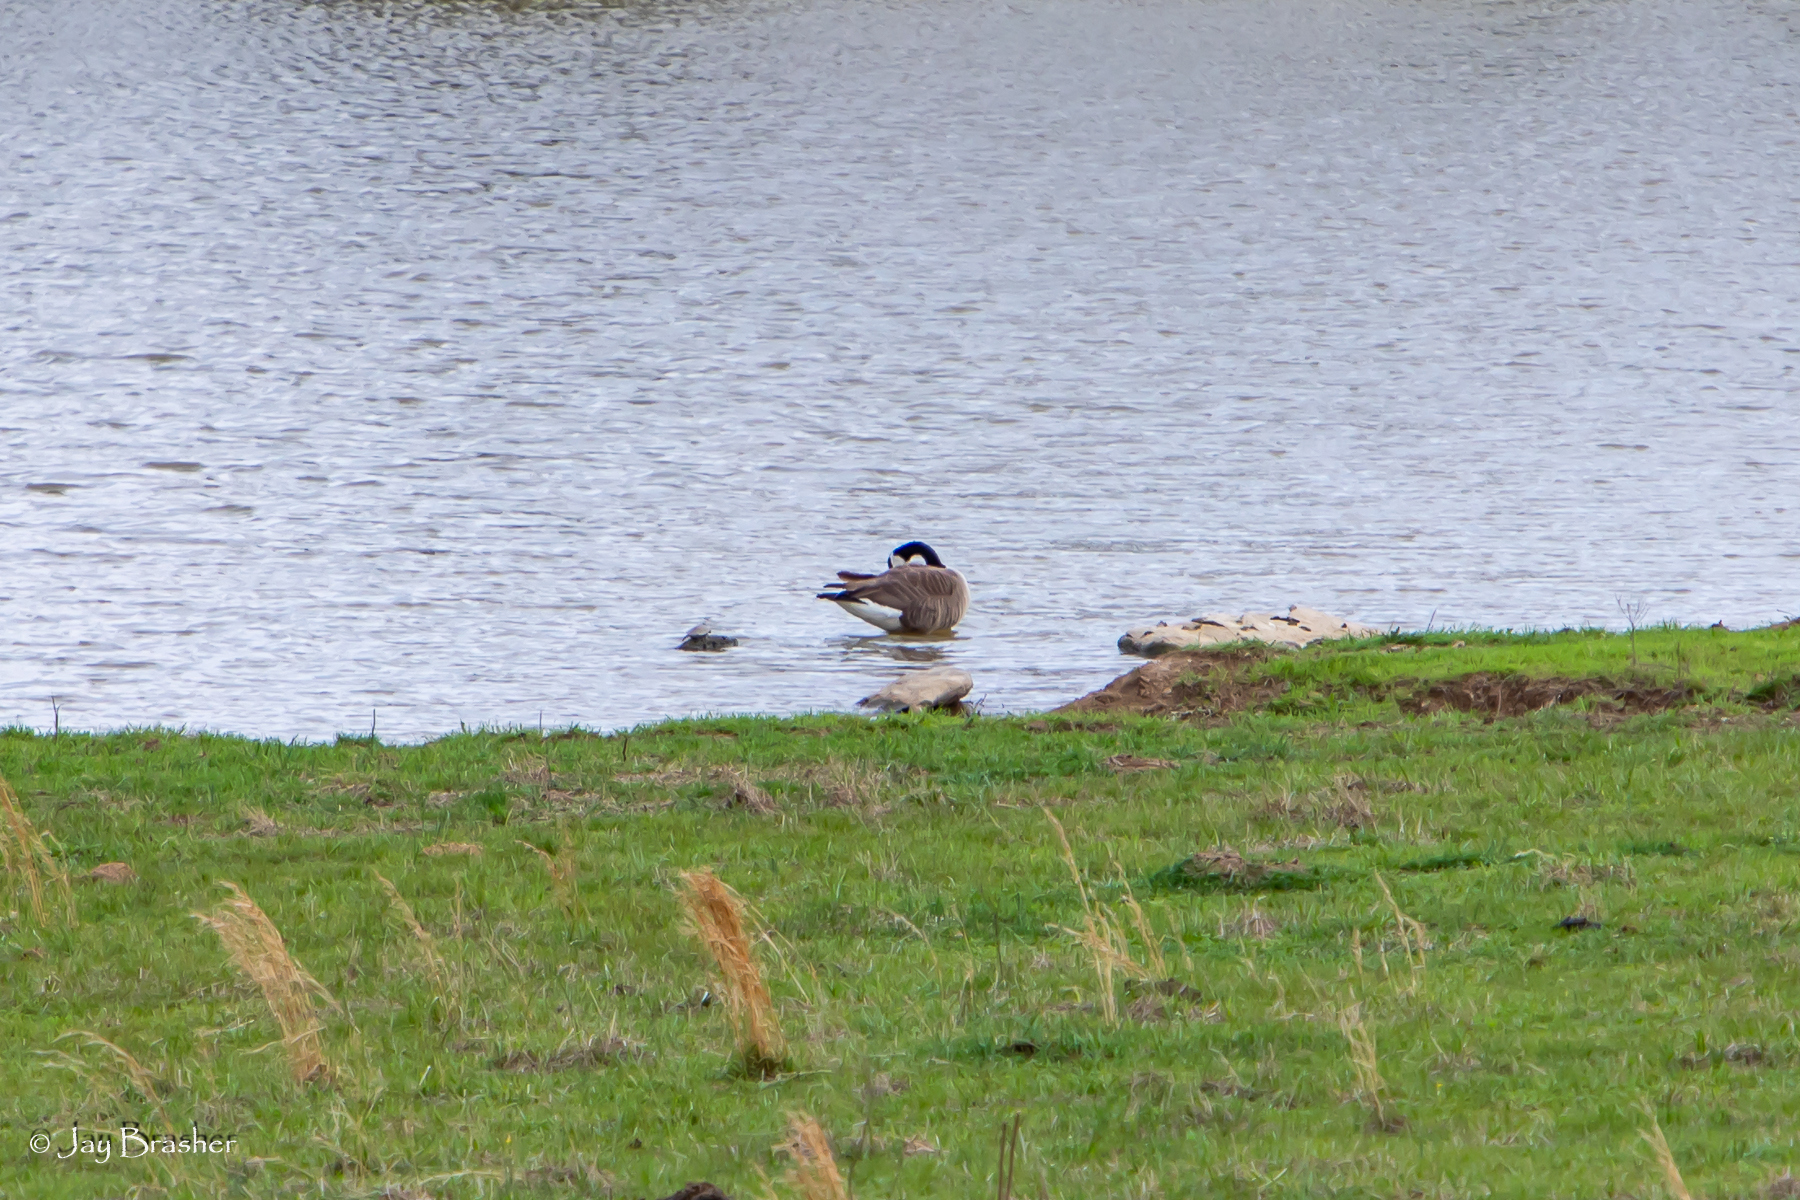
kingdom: Animalia
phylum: Chordata
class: Aves
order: Anseriformes
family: Anatidae
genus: Branta
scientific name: Branta canadensis
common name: Canada goose
